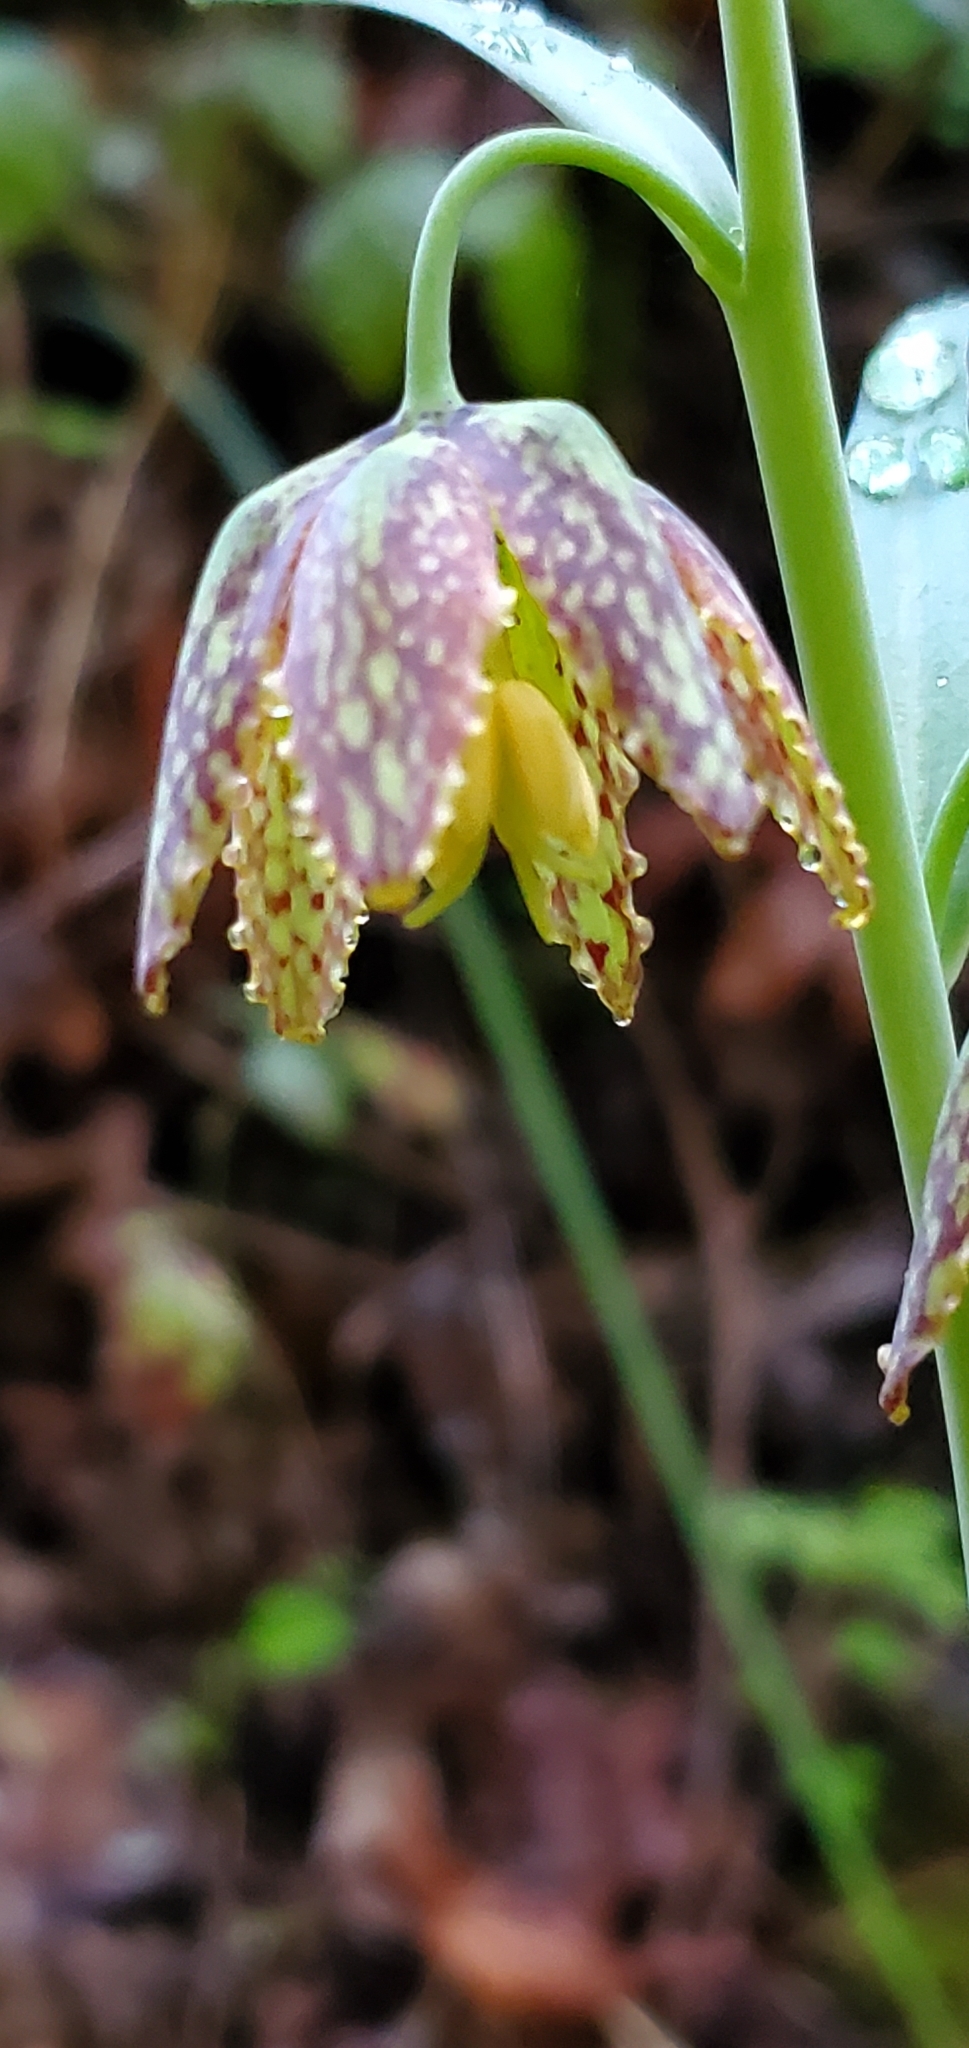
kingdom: Plantae
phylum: Tracheophyta
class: Liliopsida
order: Liliales
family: Liliaceae
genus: Fritillaria
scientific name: Fritillaria affinis
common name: Ojai fritillary
